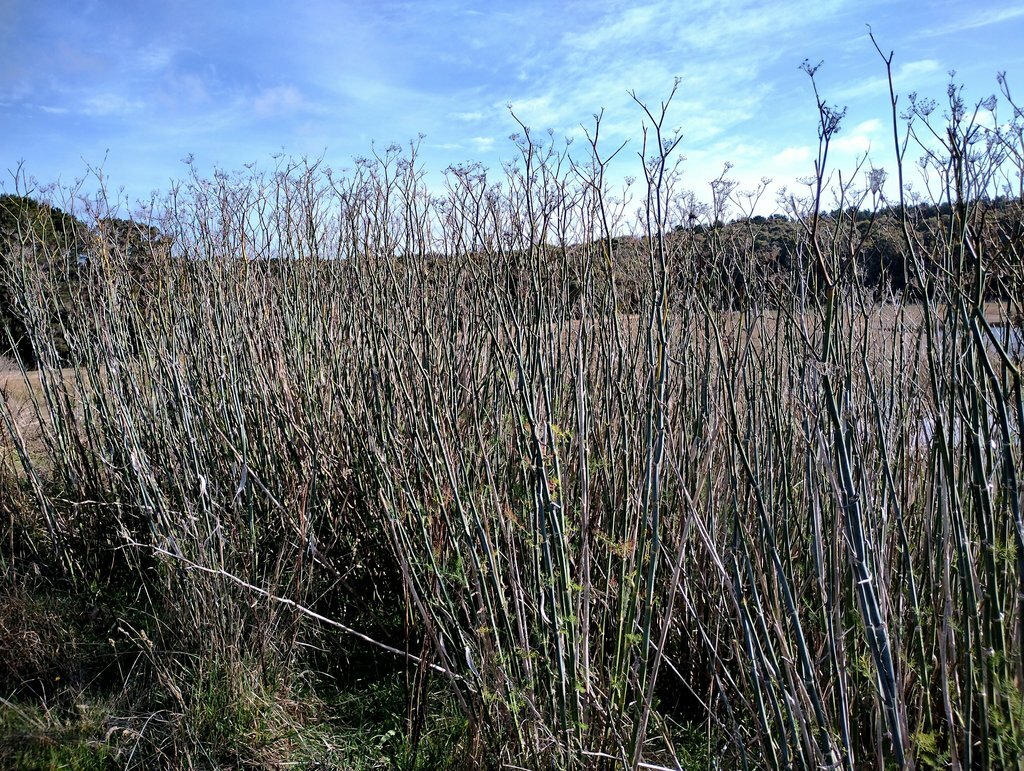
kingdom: Plantae
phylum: Tracheophyta
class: Magnoliopsida
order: Apiales
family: Apiaceae
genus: Foeniculum
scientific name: Foeniculum vulgare
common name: Fennel
